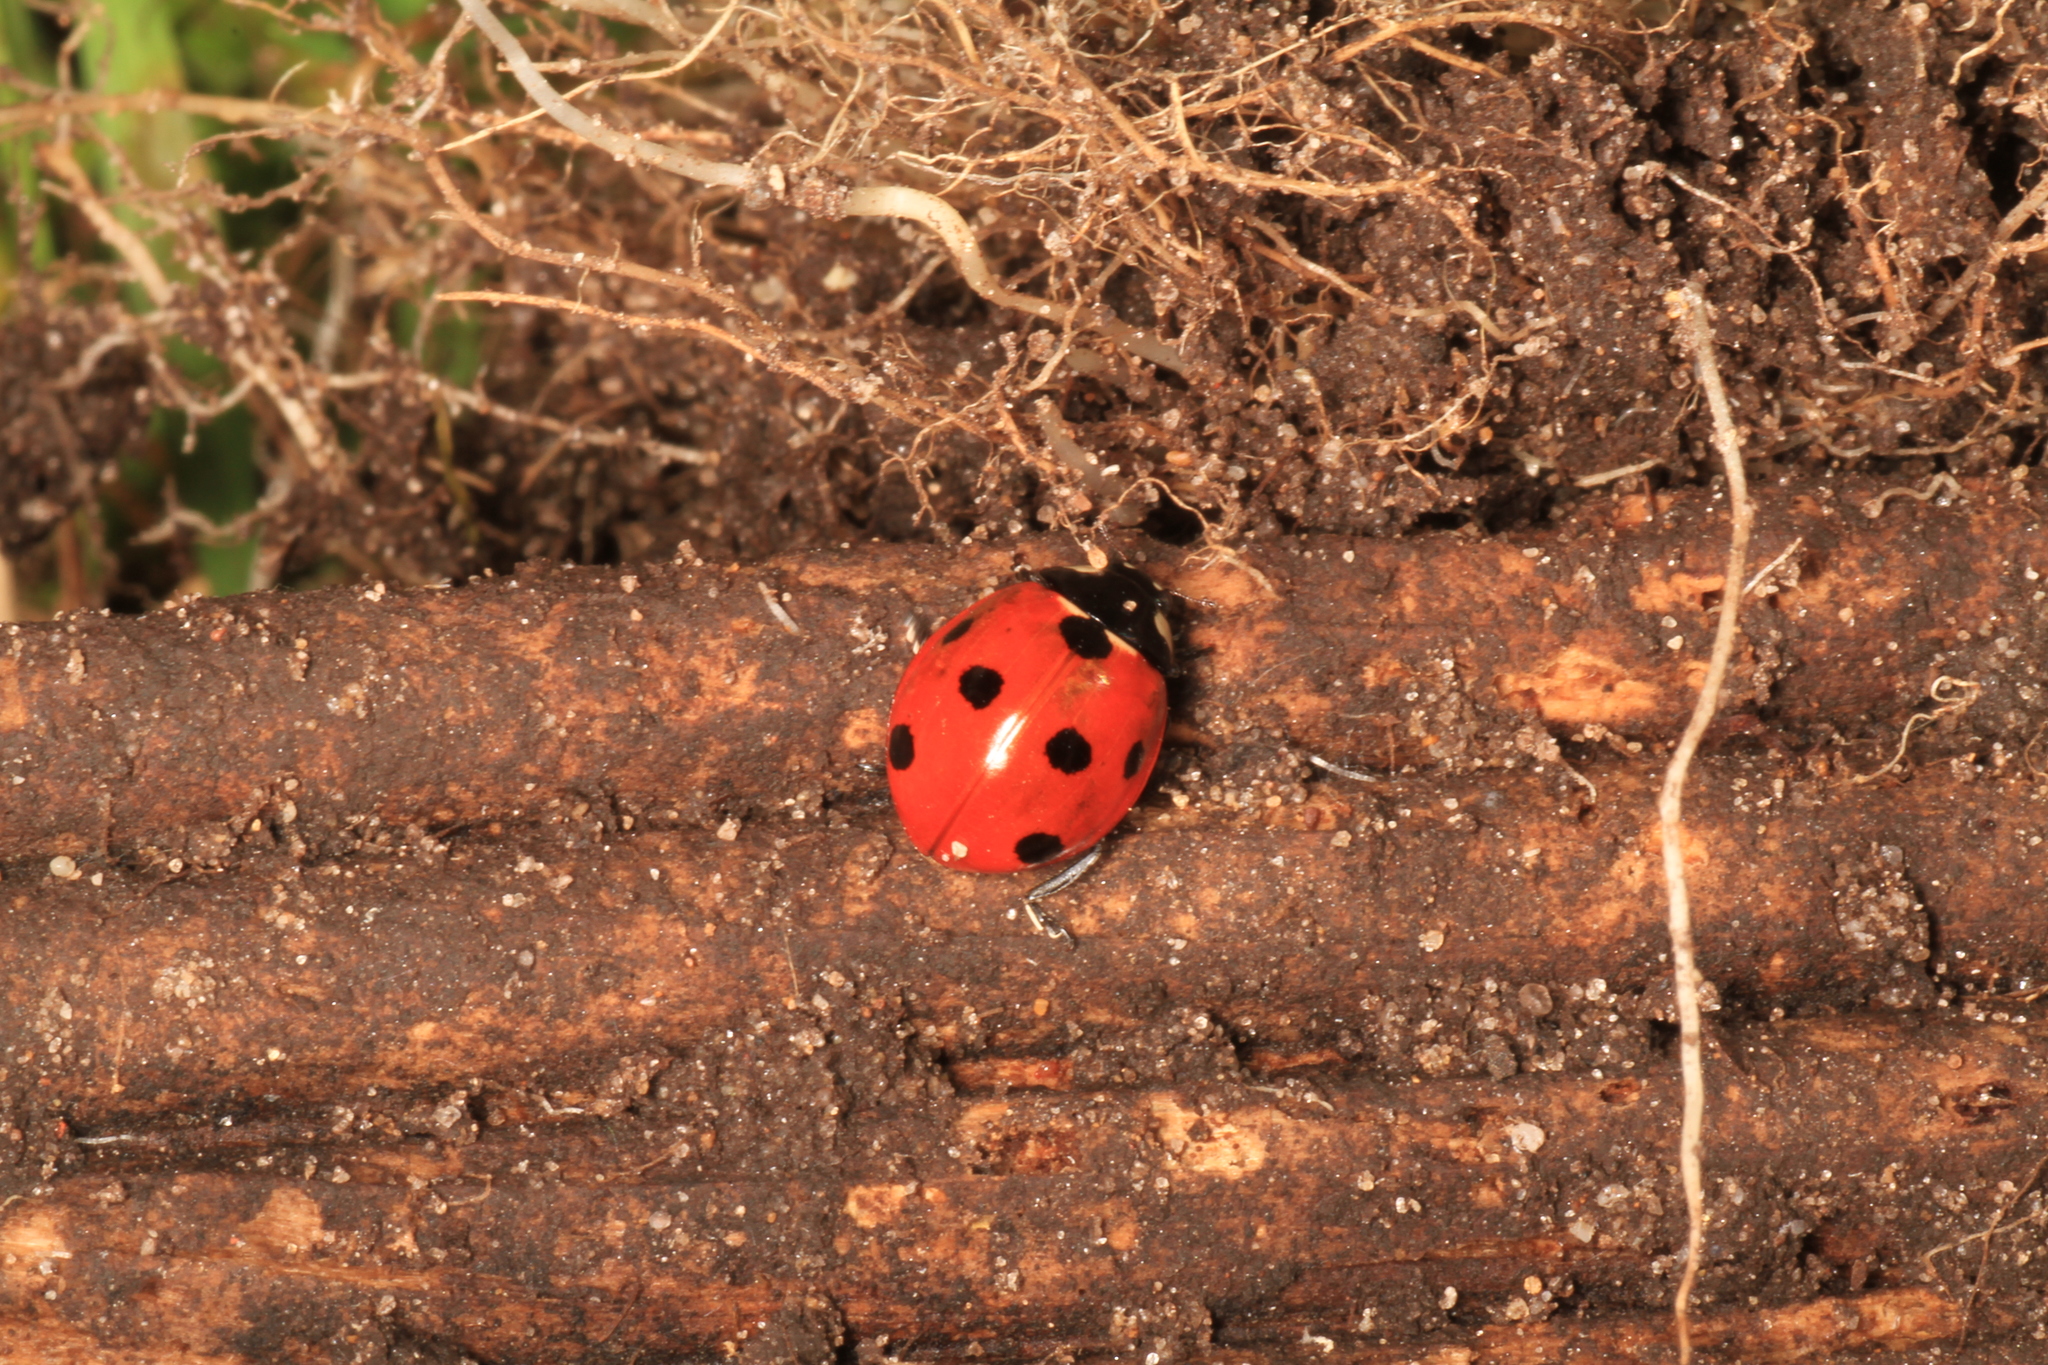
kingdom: Animalia
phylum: Arthropoda
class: Insecta
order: Coleoptera
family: Coccinellidae
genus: Coccinella
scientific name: Coccinella septempunctata
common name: Sevenspotted lady beetle
